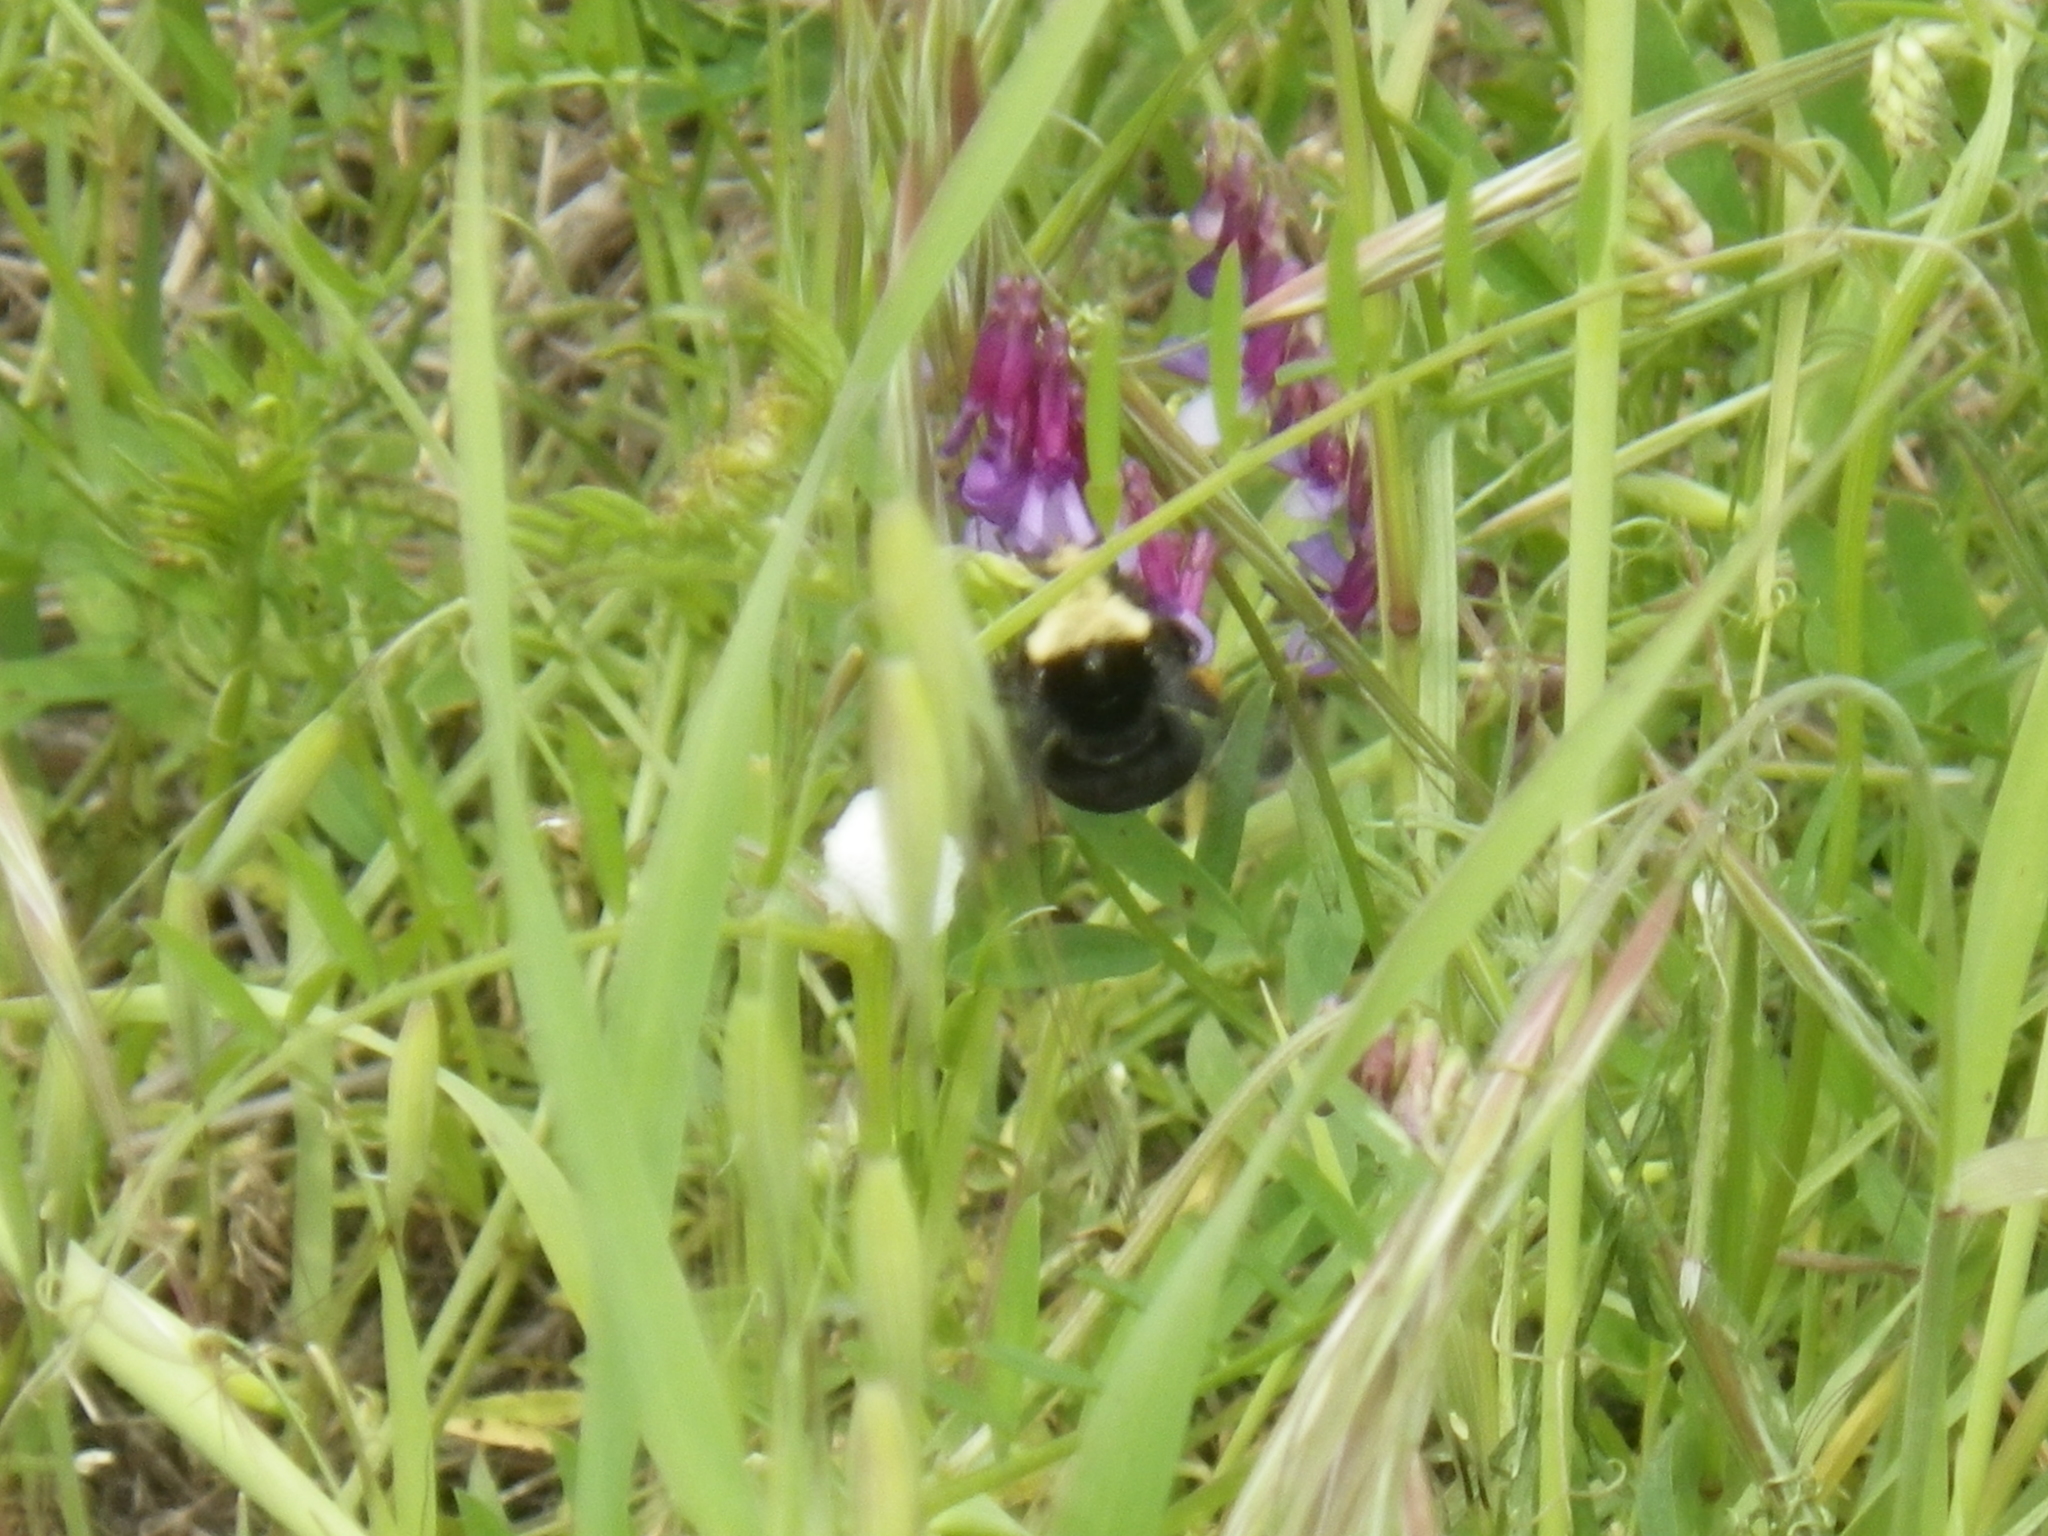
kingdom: Animalia
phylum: Arthropoda
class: Insecta
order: Hymenoptera
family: Apidae
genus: Bombus
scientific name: Bombus vosnesenskii
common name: Vosnesensky bumble bee
